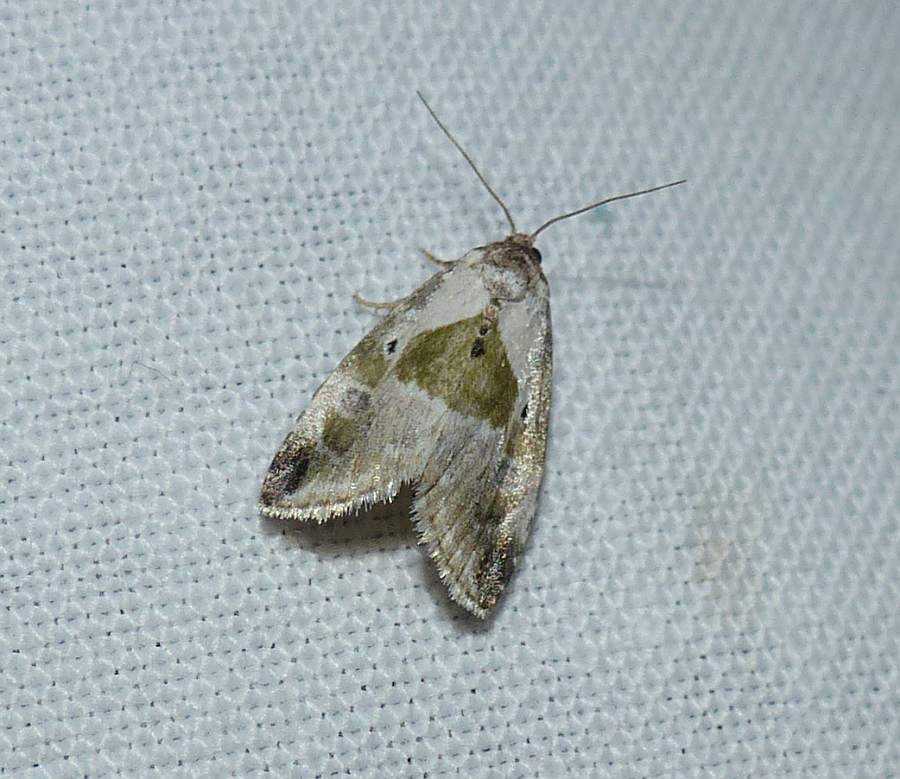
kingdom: Animalia
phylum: Arthropoda
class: Insecta
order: Lepidoptera
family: Noctuidae
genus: Maliattha
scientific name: Maliattha synochitis
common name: Black-dotted glyph
